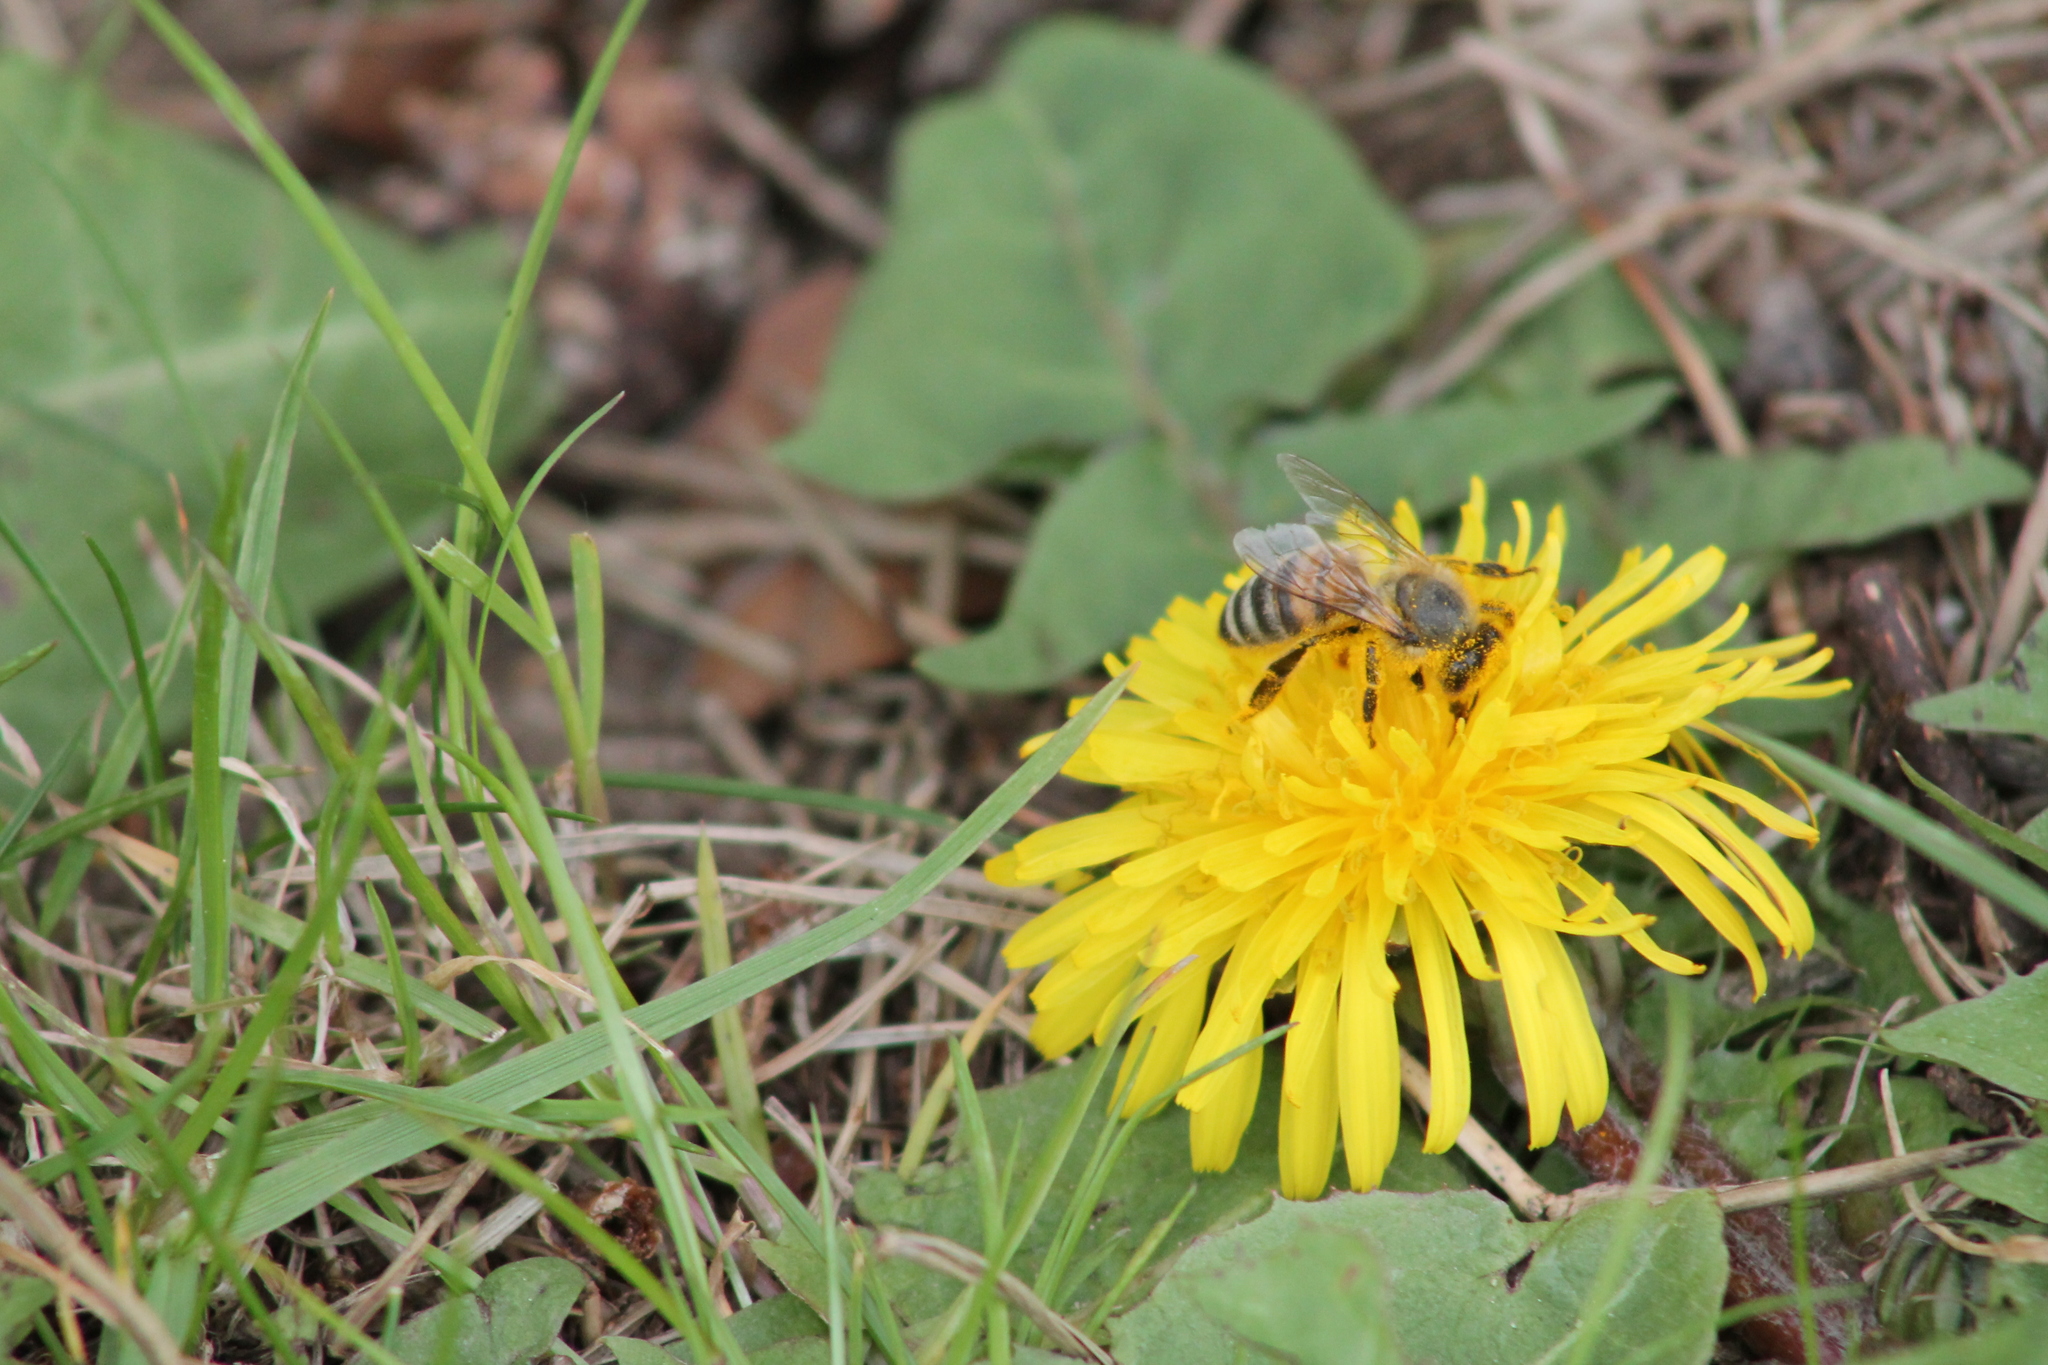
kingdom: Animalia
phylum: Arthropoda
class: Insecta
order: Hymenoptera
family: Apidae
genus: Apis
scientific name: Apis mellifera
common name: Honey bee
